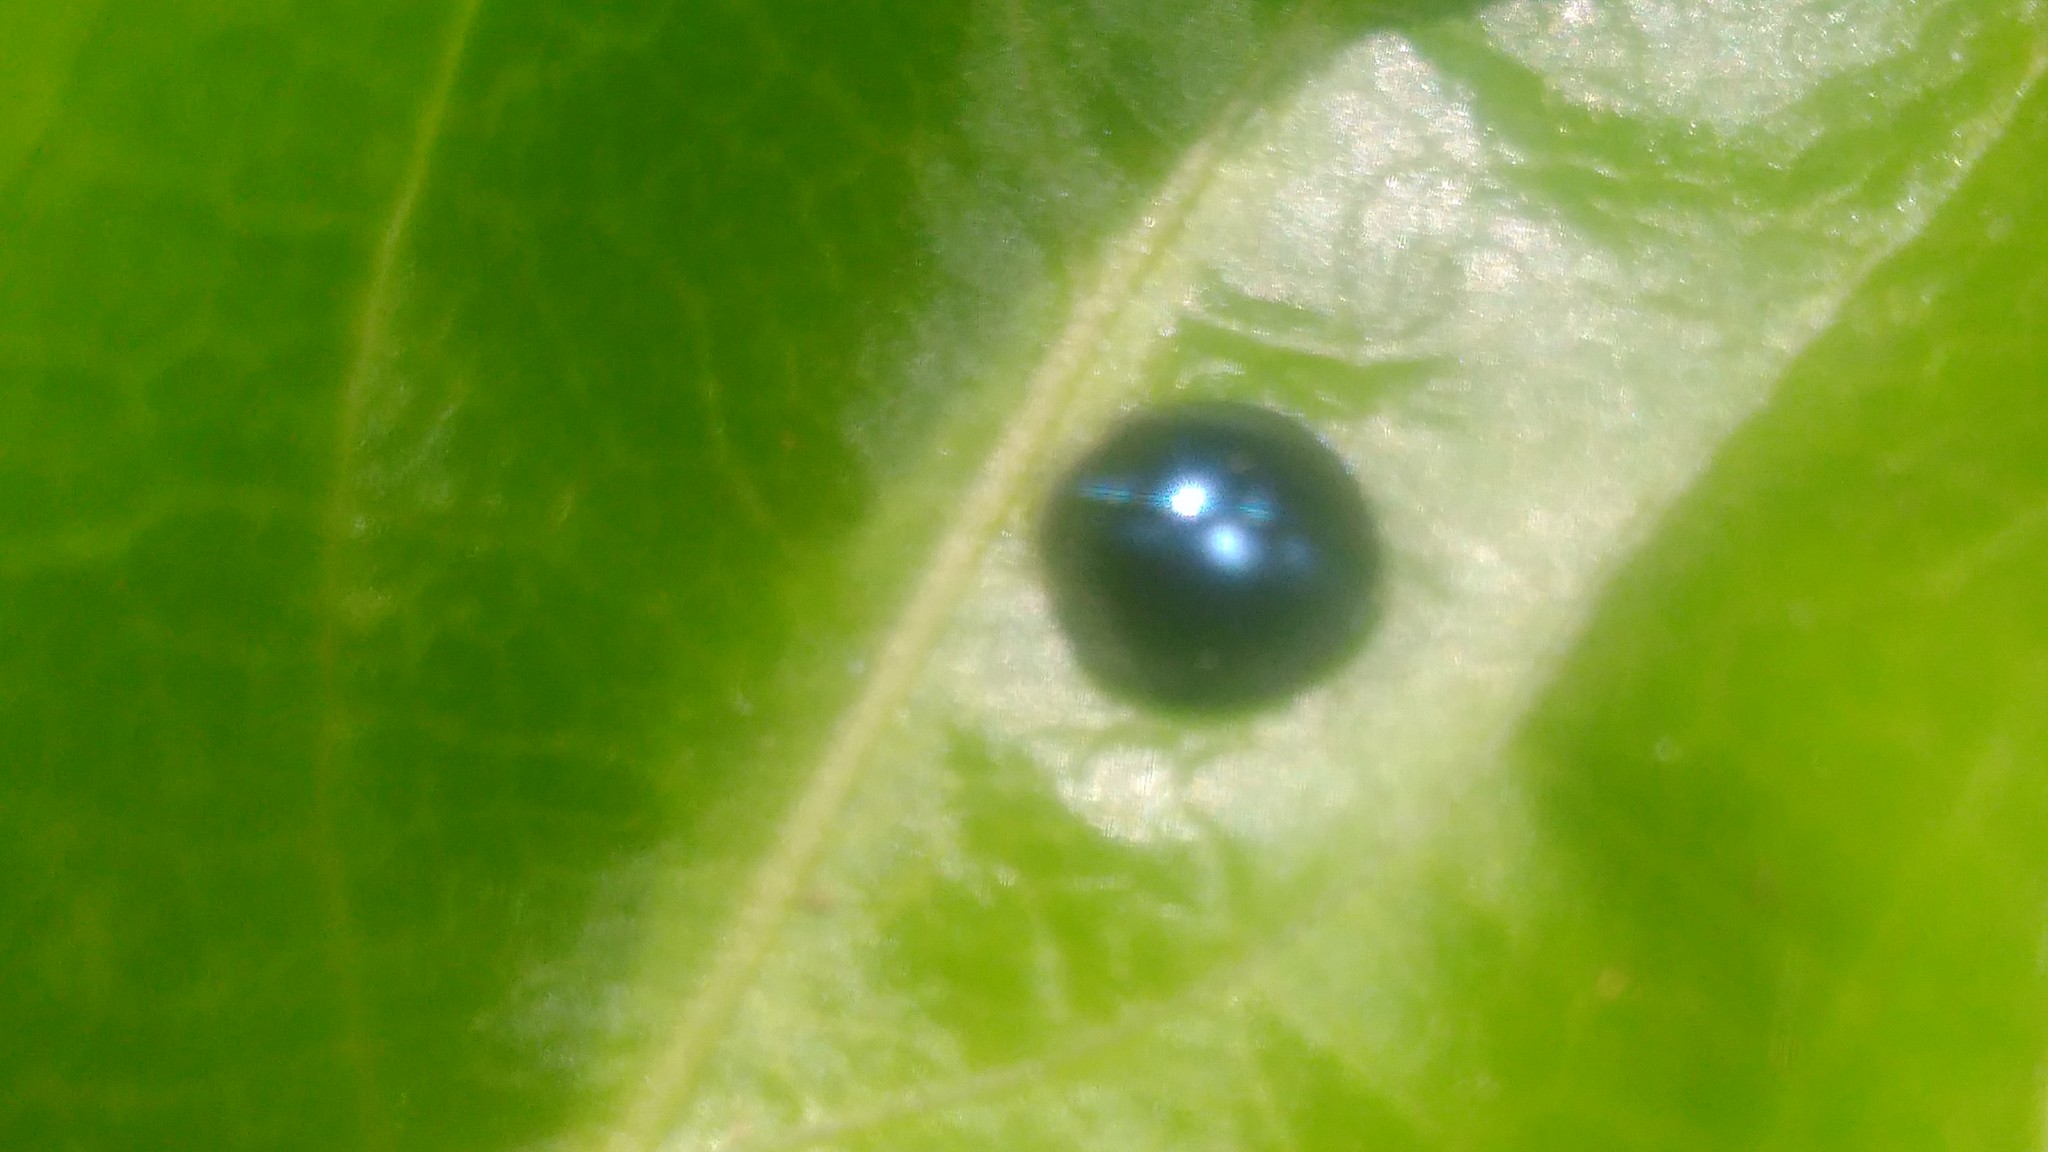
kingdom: Animalia
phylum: Arthropoda
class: Insecta
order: Coleoptera
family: Coccinellidae
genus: Curinus
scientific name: Curinus coeruleus
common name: Ladybird beetle
